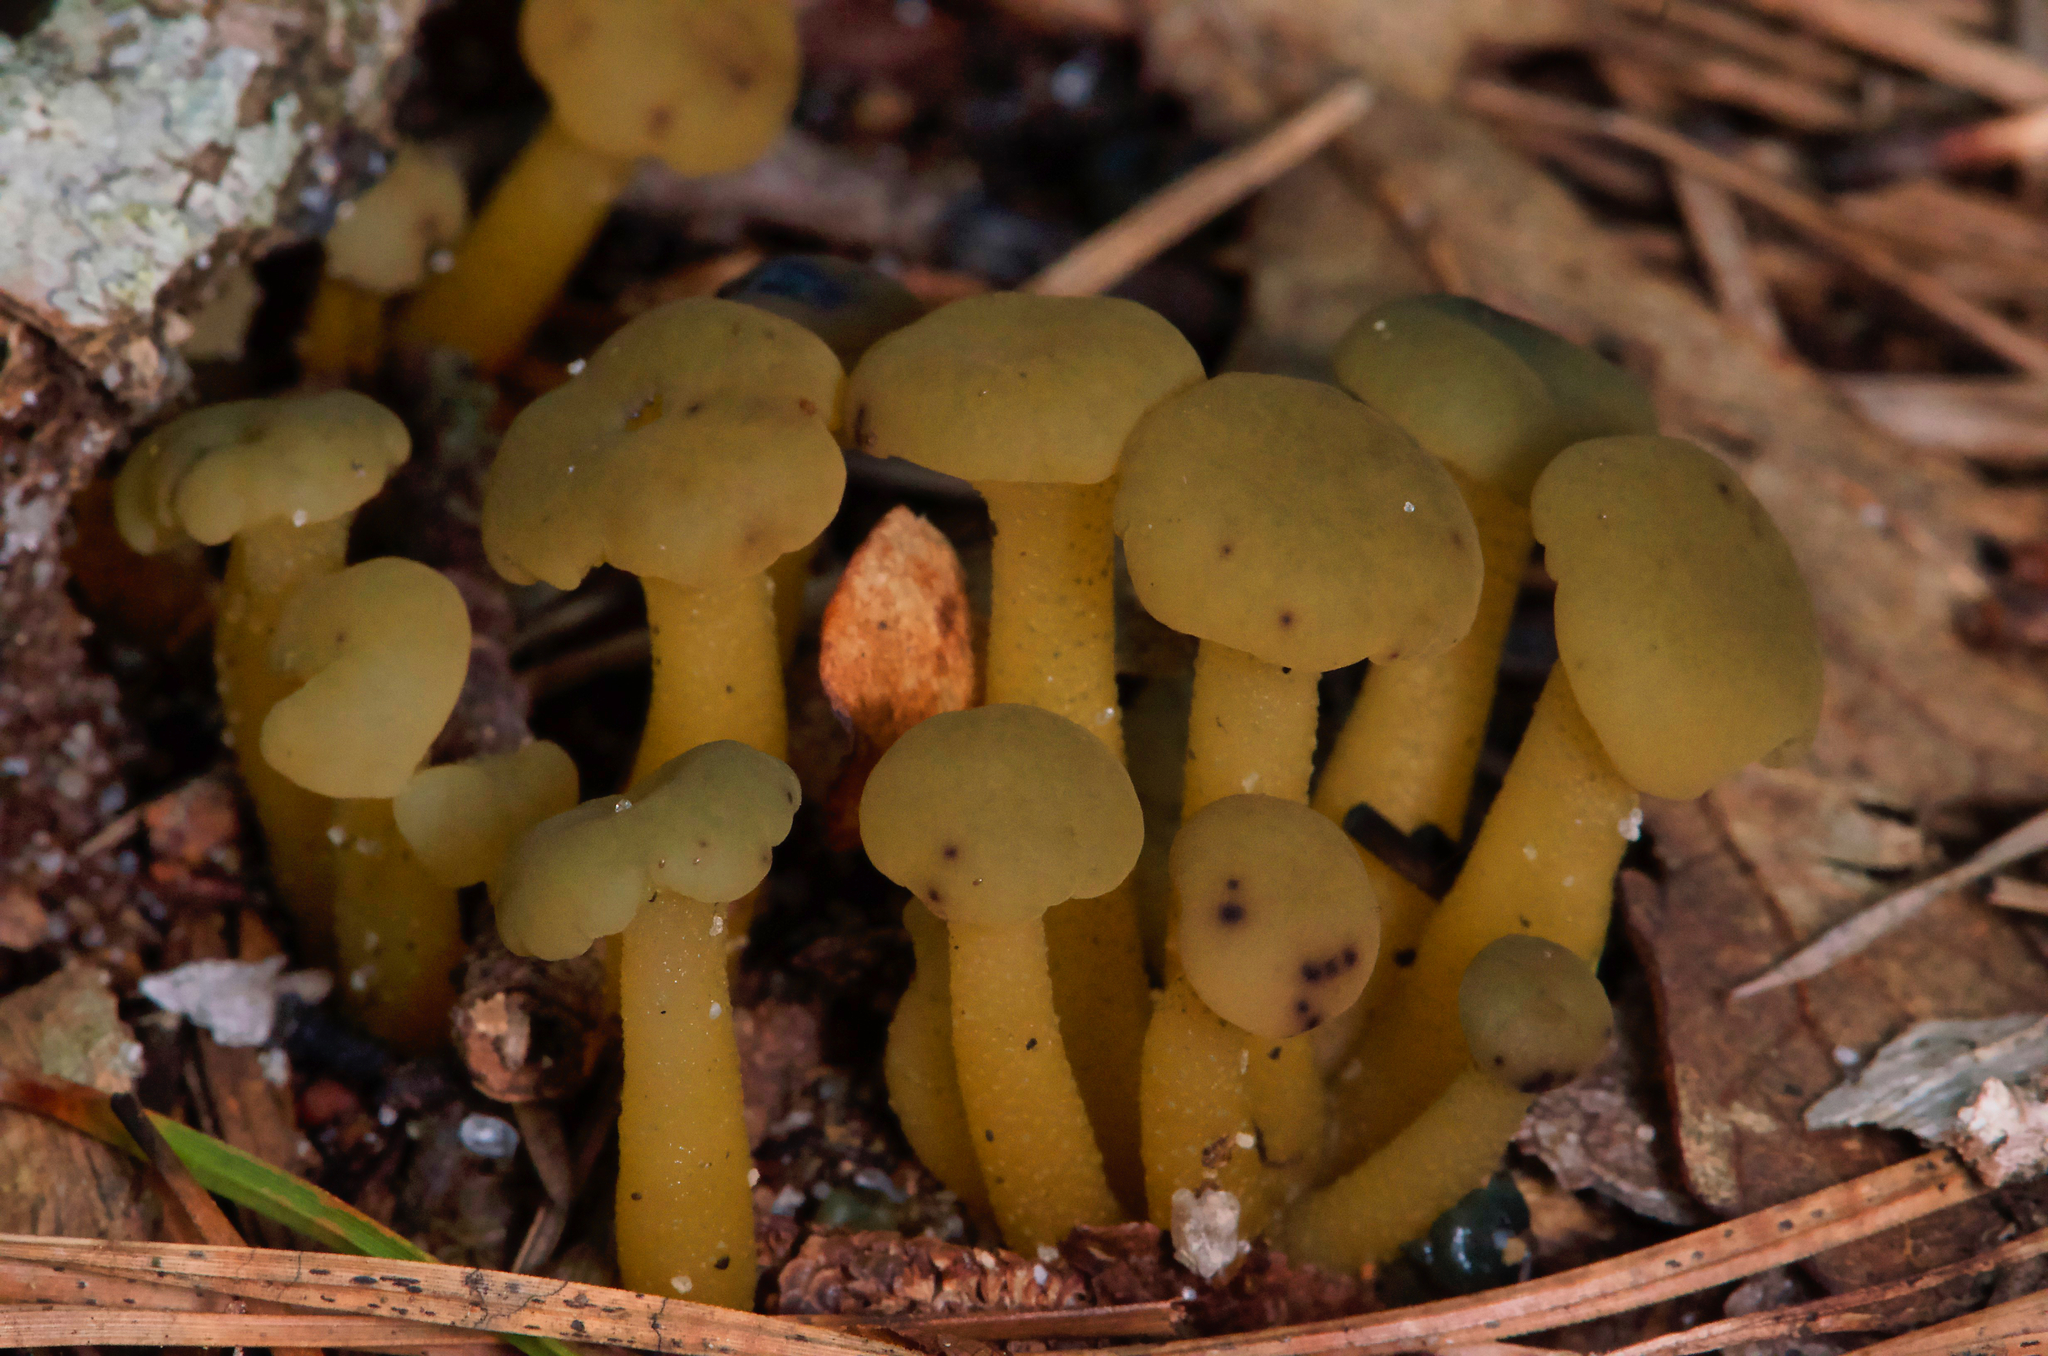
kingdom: Fungi
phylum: Ascomycota
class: Leotiomycetes
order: Leotiales
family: Leotiaceae
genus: Leotia
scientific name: Leotia lubrica
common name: Jellybaby
